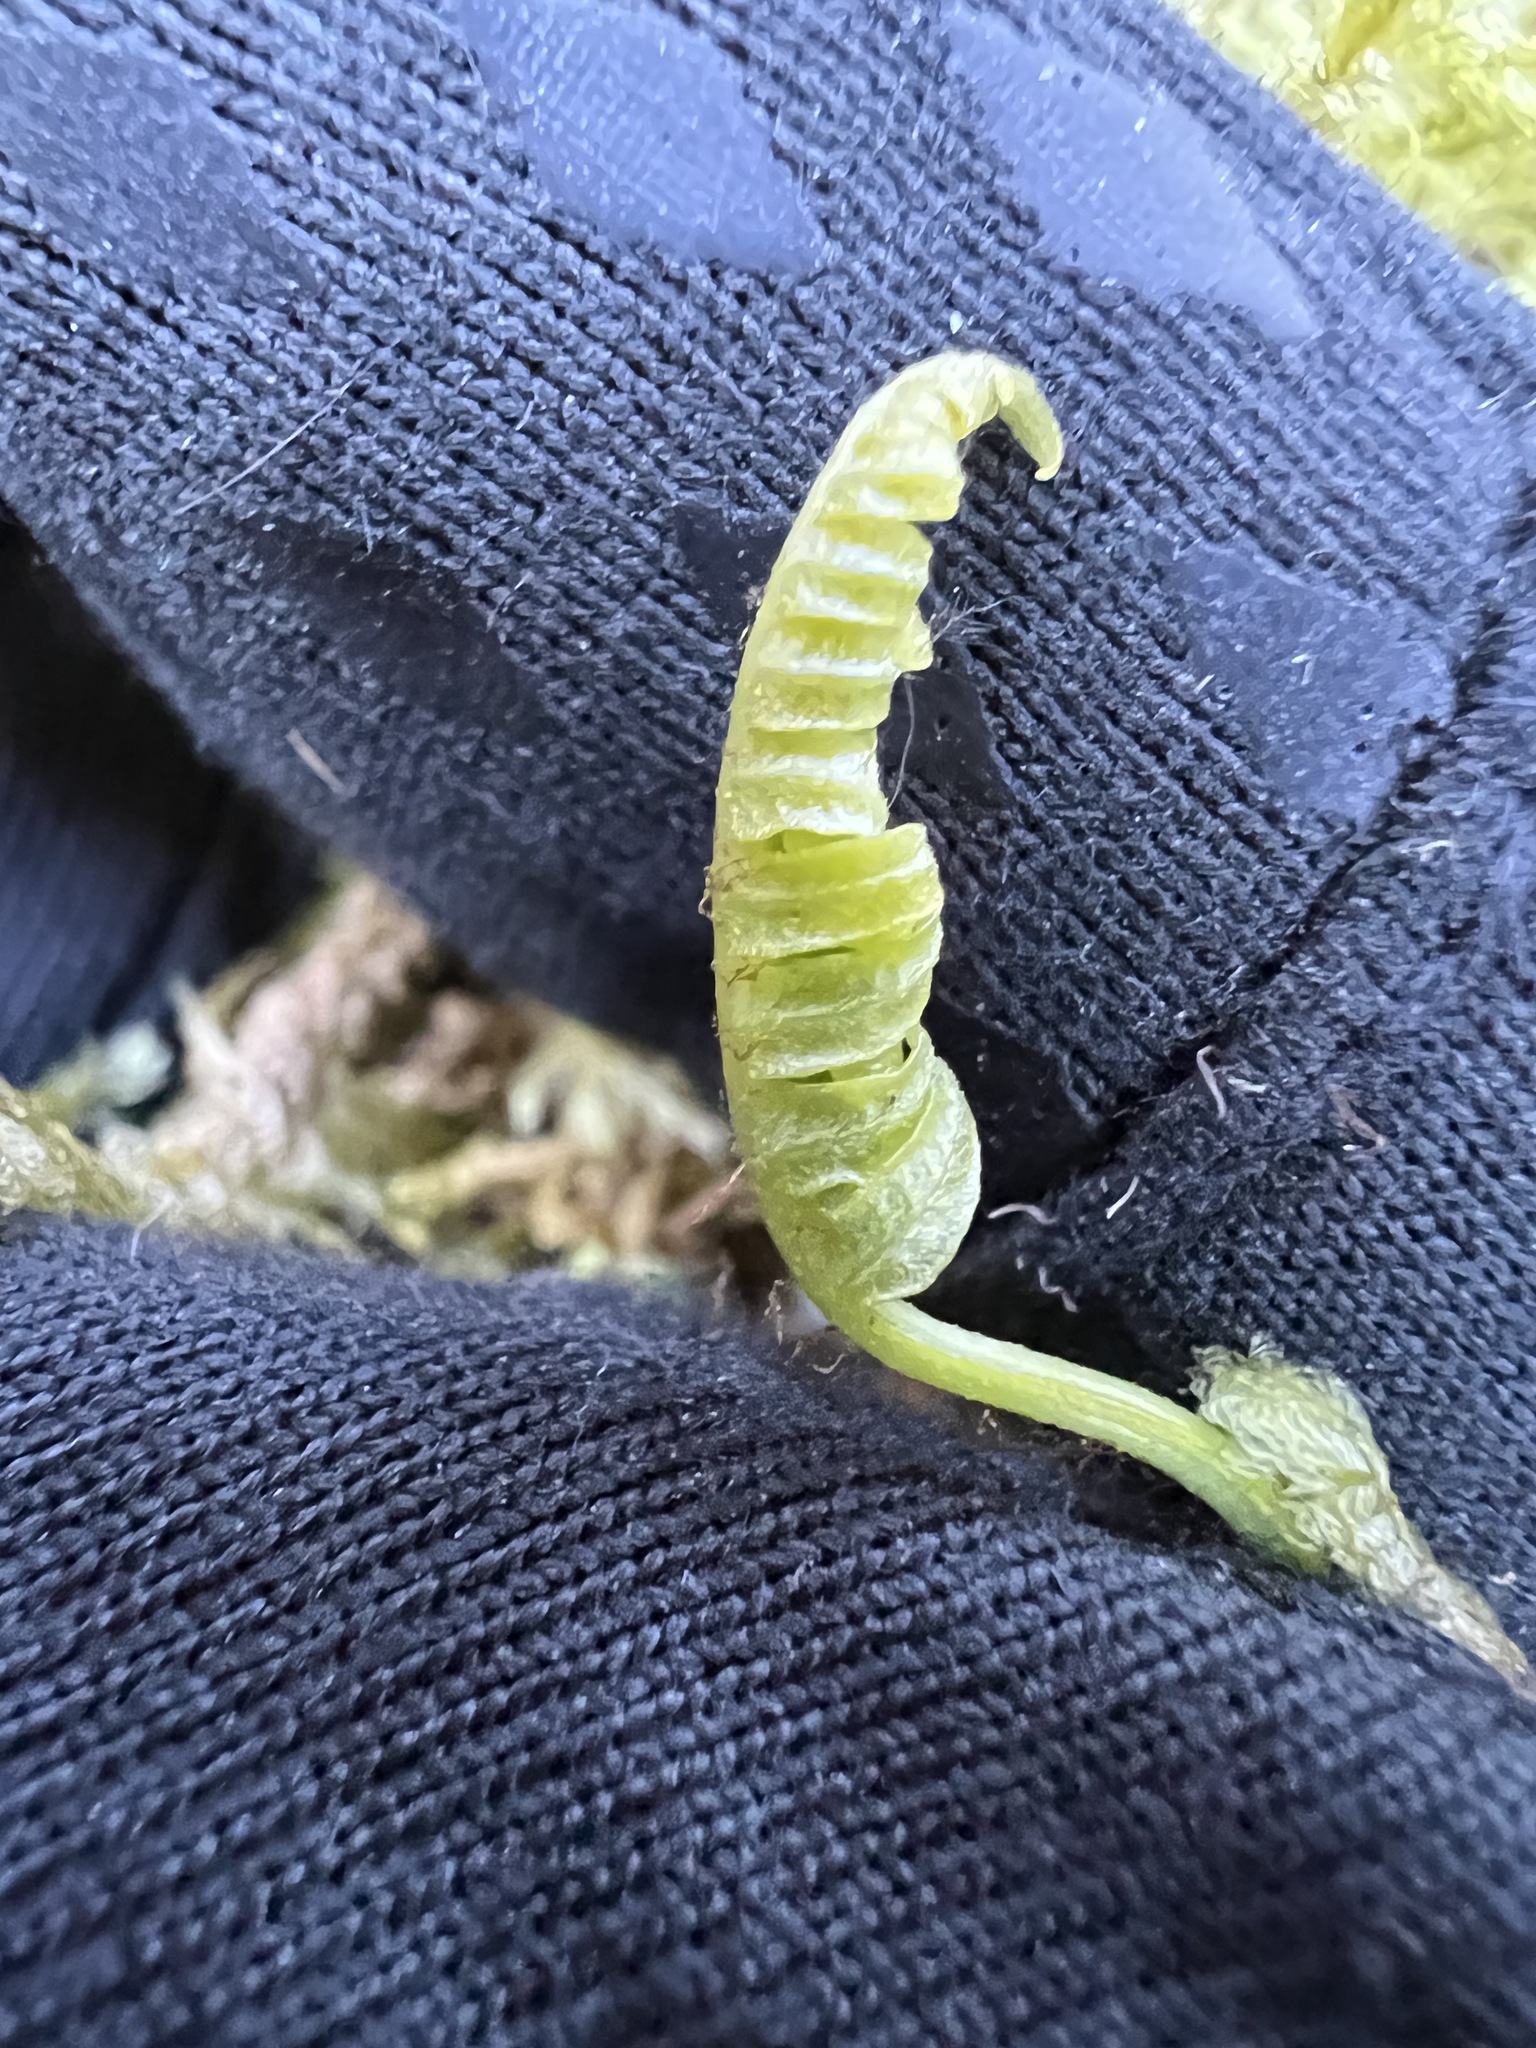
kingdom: Plantae
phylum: Tracheophyta
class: Polypodiopsida
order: Polypodiales
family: Polypodiaceae
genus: Polypodium
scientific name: Polypodium glycyrrhiza
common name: Licorice fern
